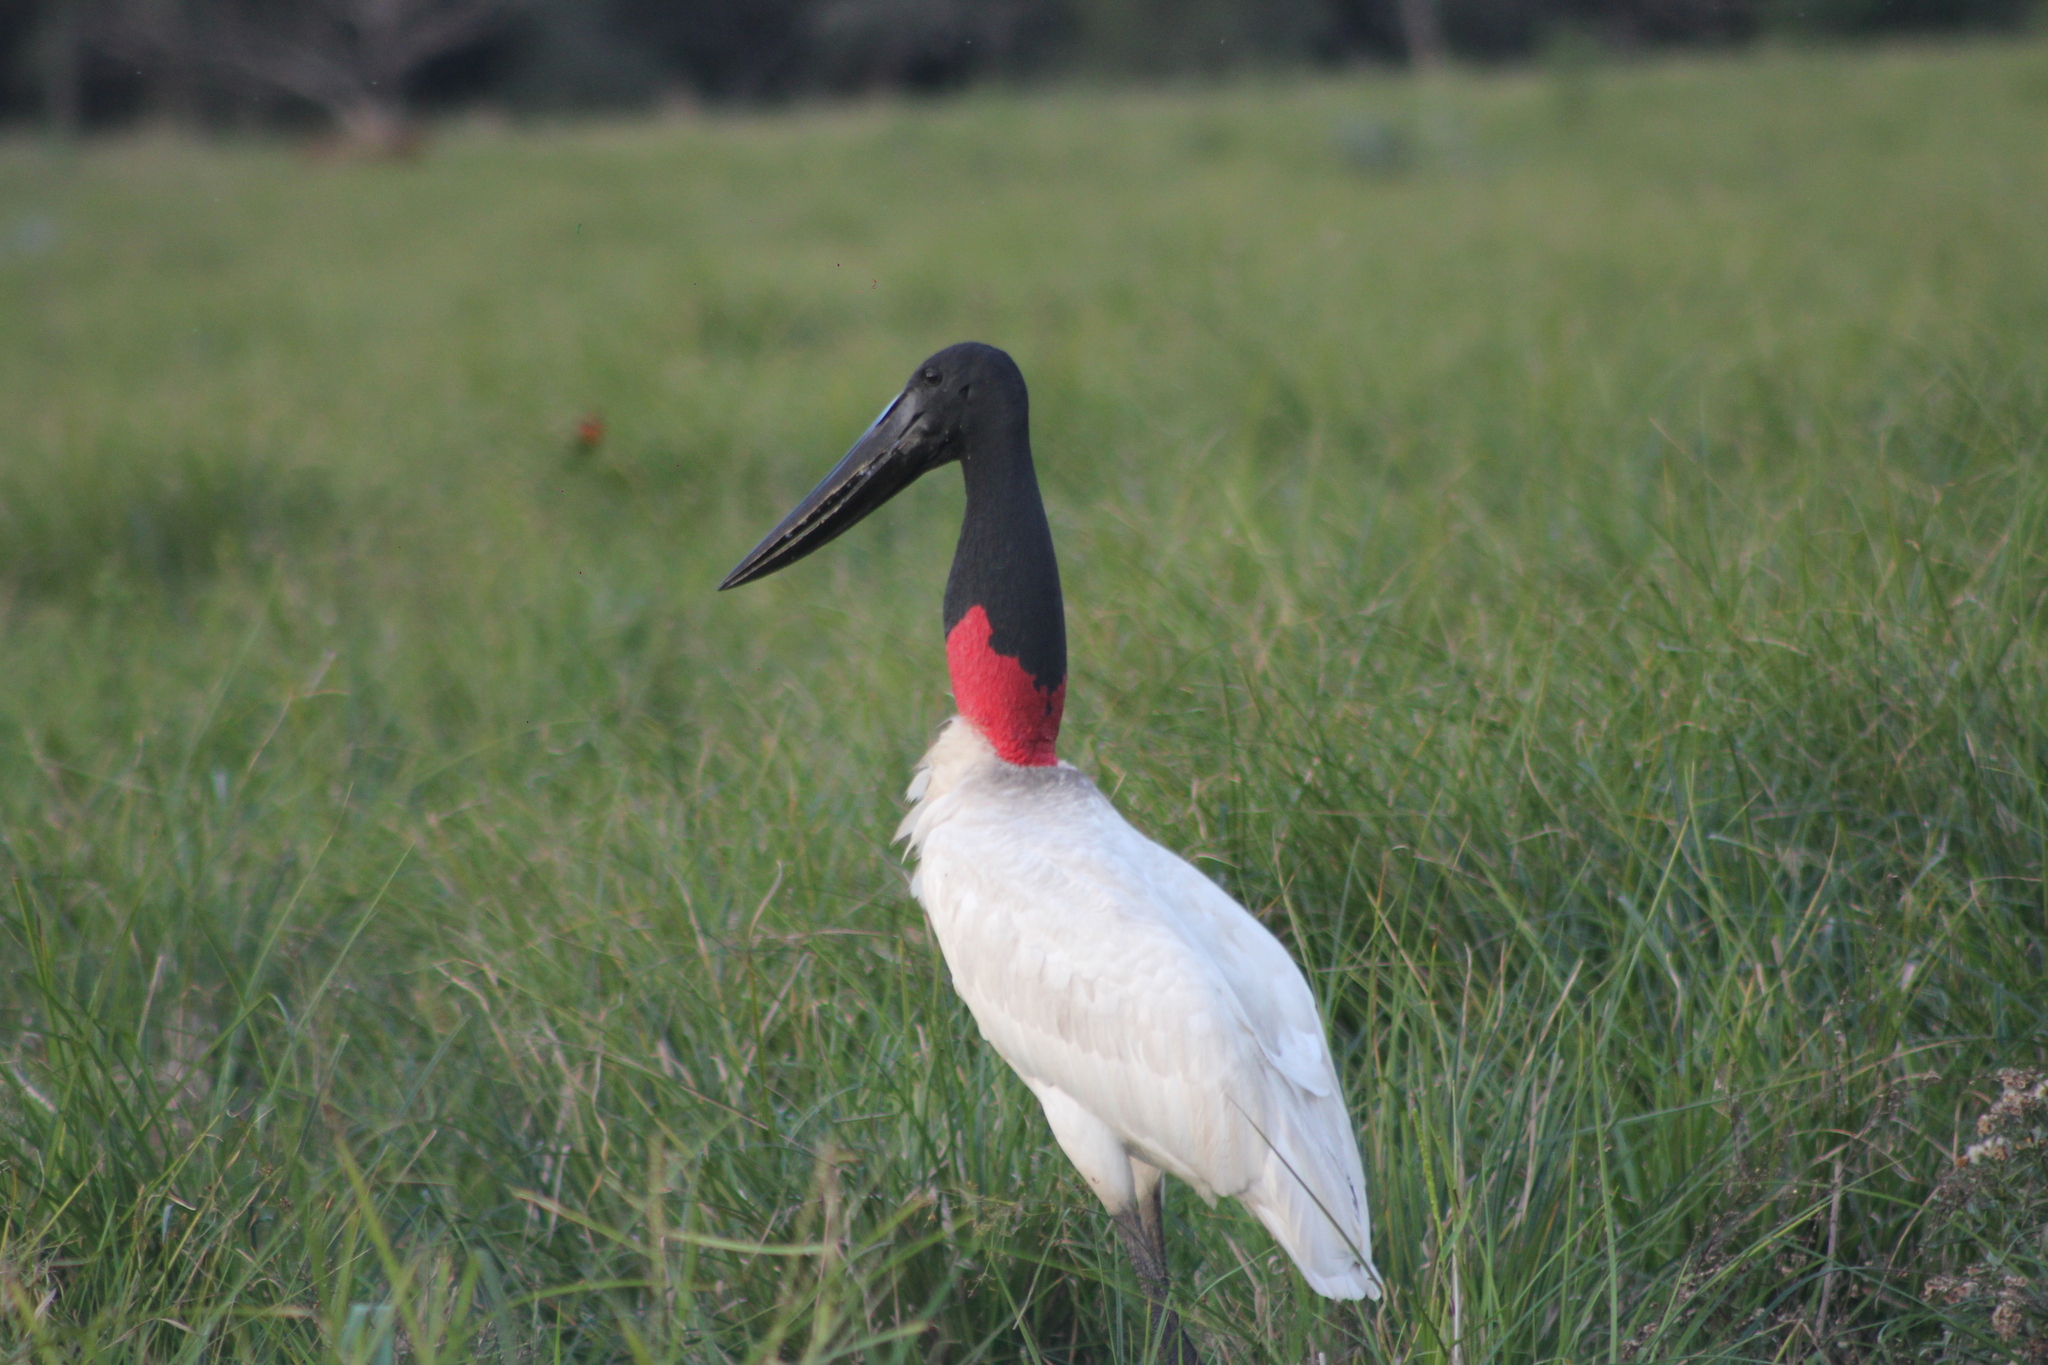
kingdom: Animalia
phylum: Chordata
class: Aves
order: Ciconiiformes
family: Ciconiidae
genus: Jabiru
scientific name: Jabiru mycteria
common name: Jabiru
